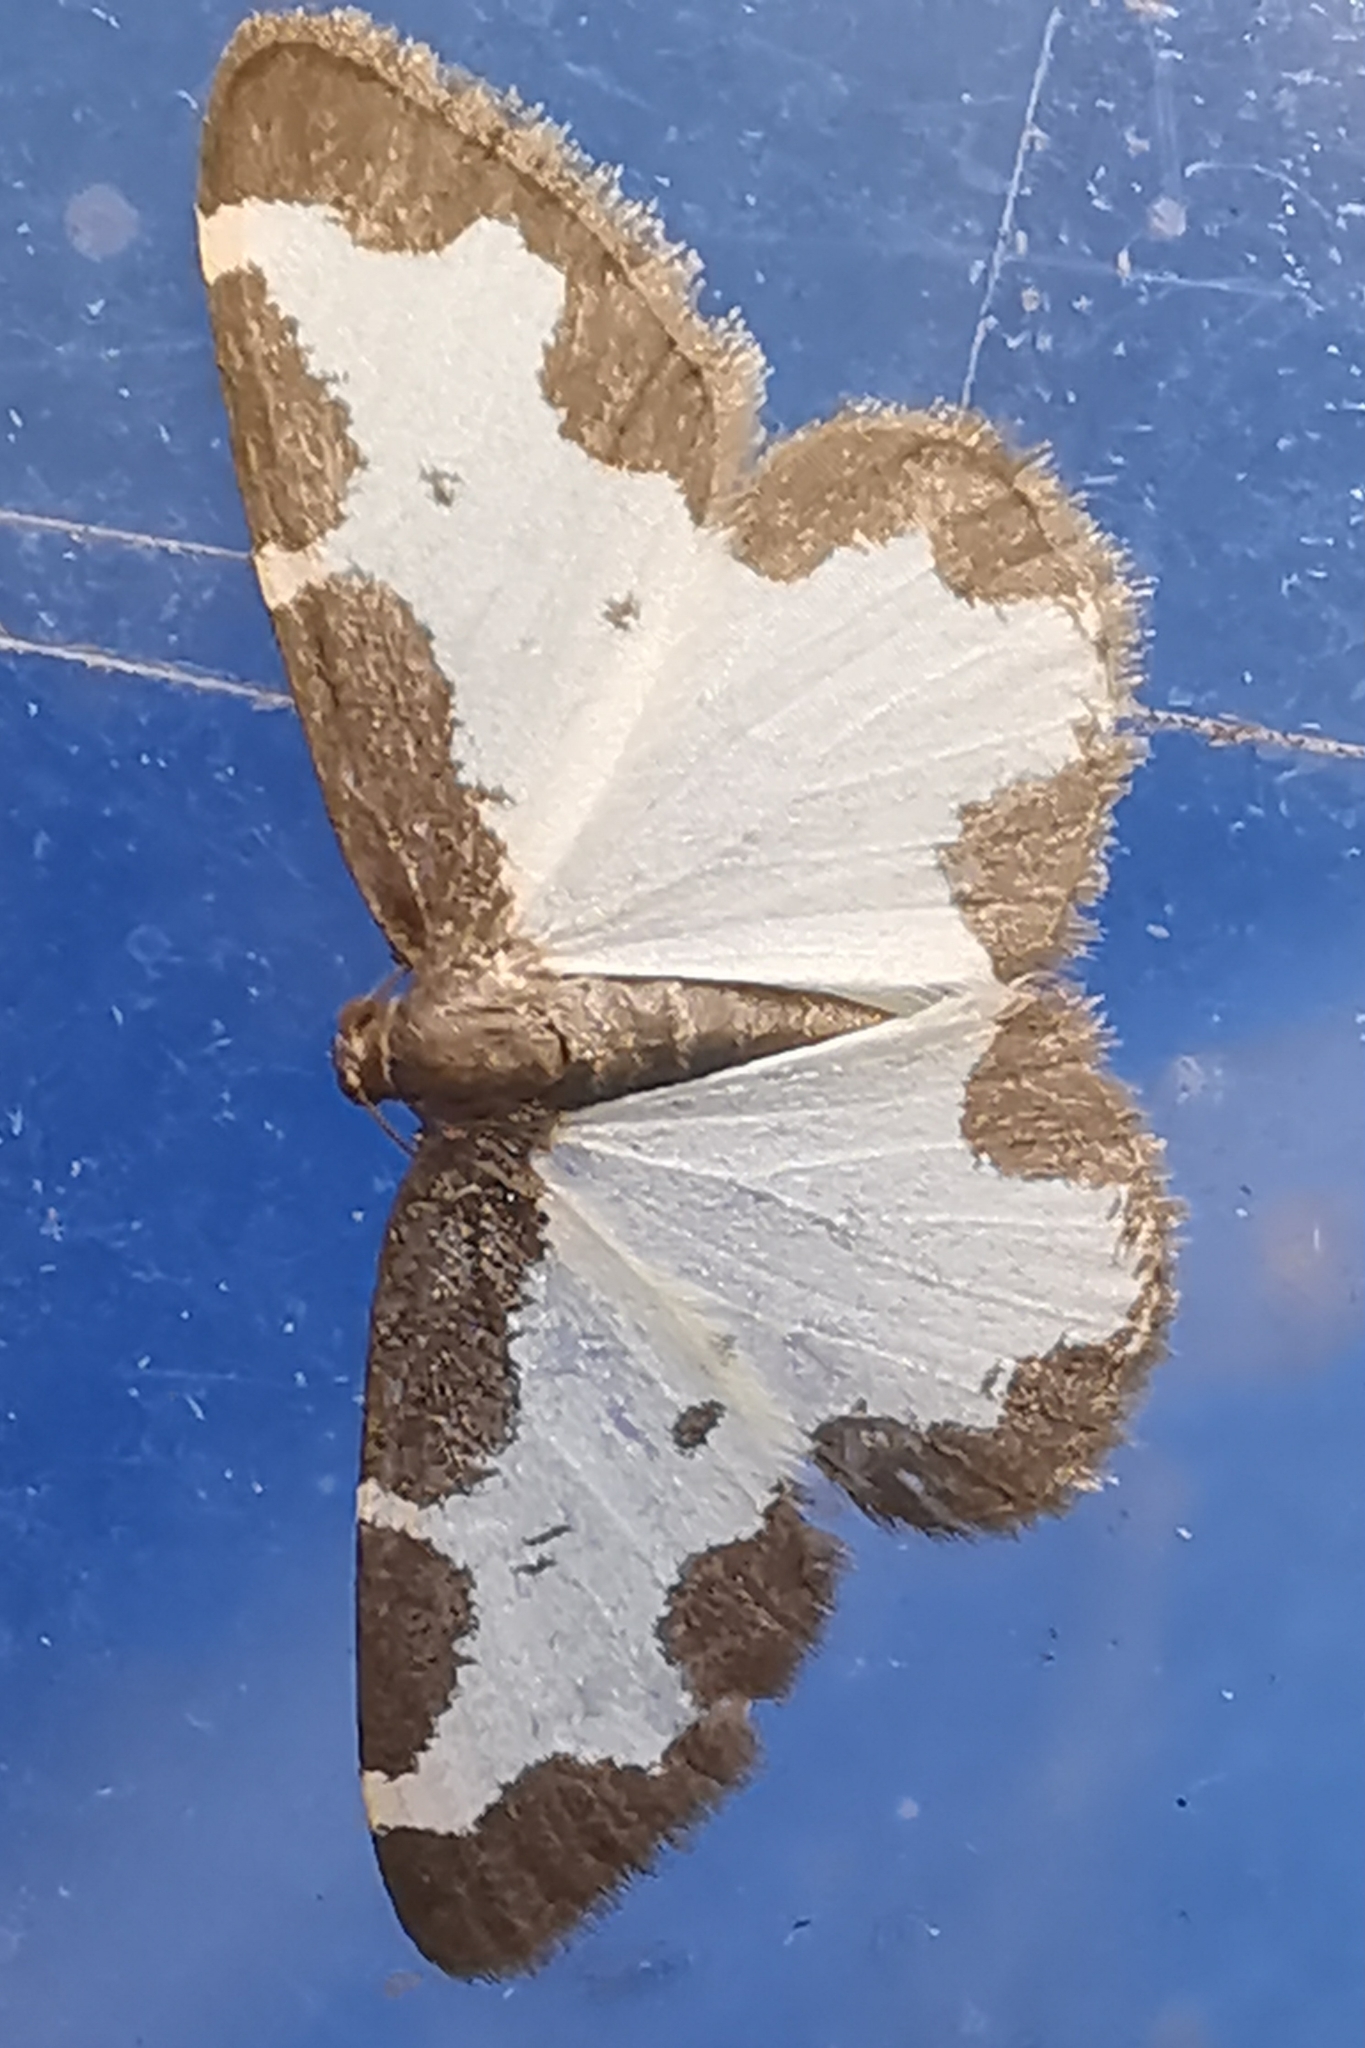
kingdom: Animalia
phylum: Arthropoda
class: Insecta
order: Lepidoptera
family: Geometridae
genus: Lomaspilis
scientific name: Lomaspilis marginata
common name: Clouded border
